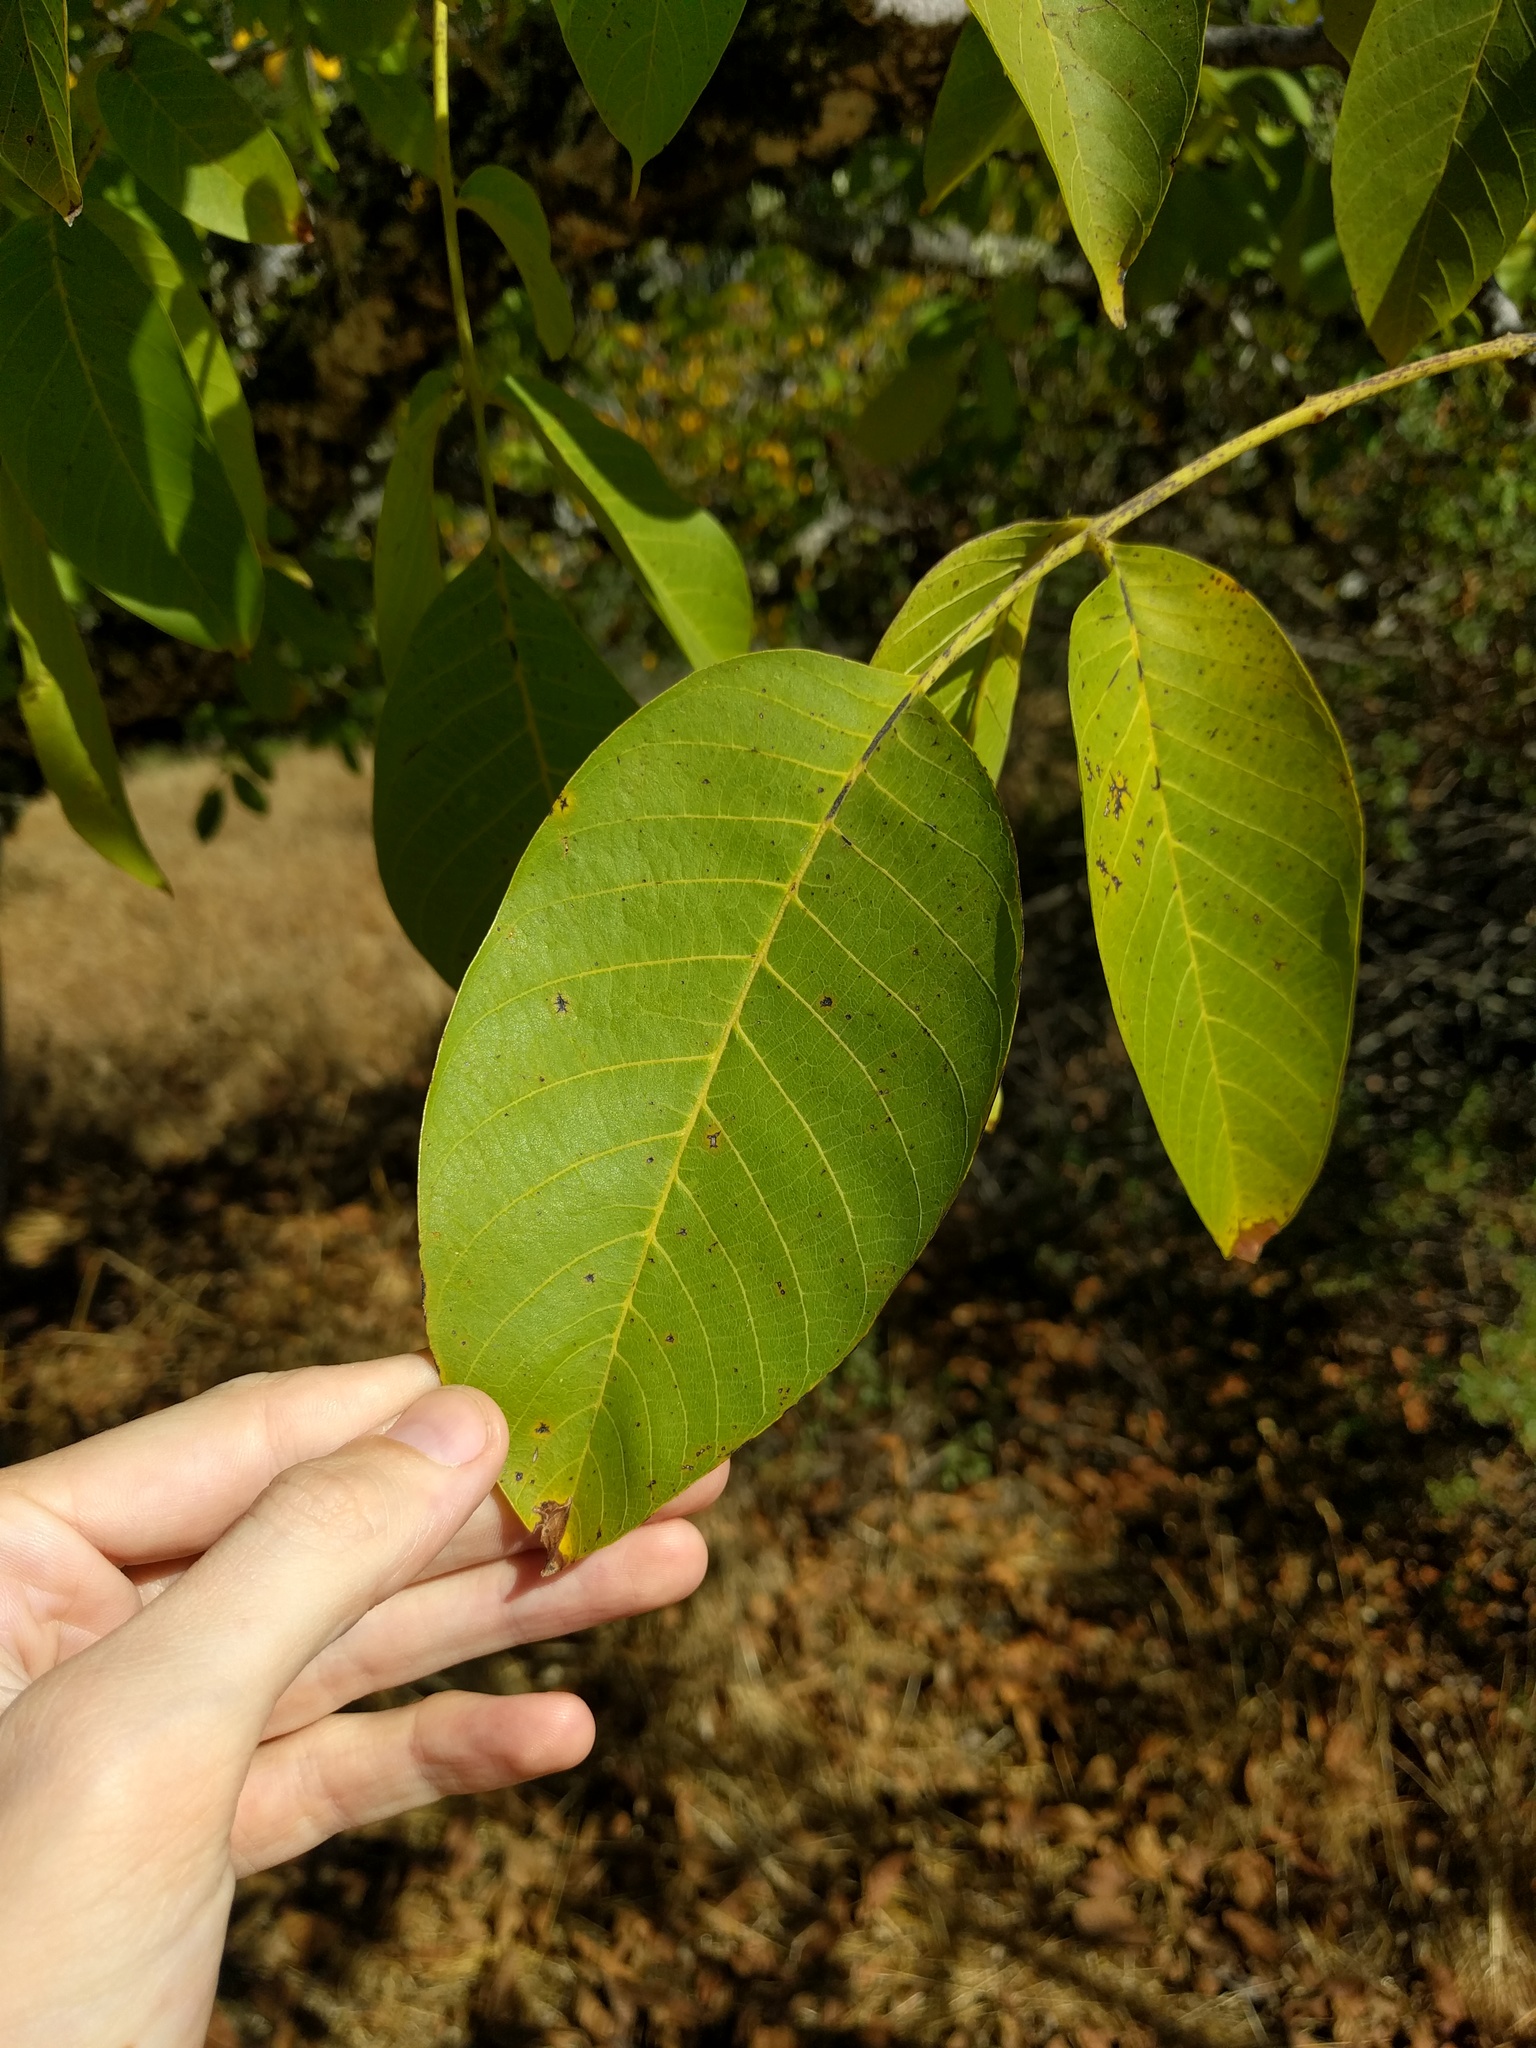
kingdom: Plantae
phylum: Tracheophyta
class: Magnoliopsida
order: Fagales
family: Juglandaceae
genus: Juglans
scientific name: Juglans regia
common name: Walnut
